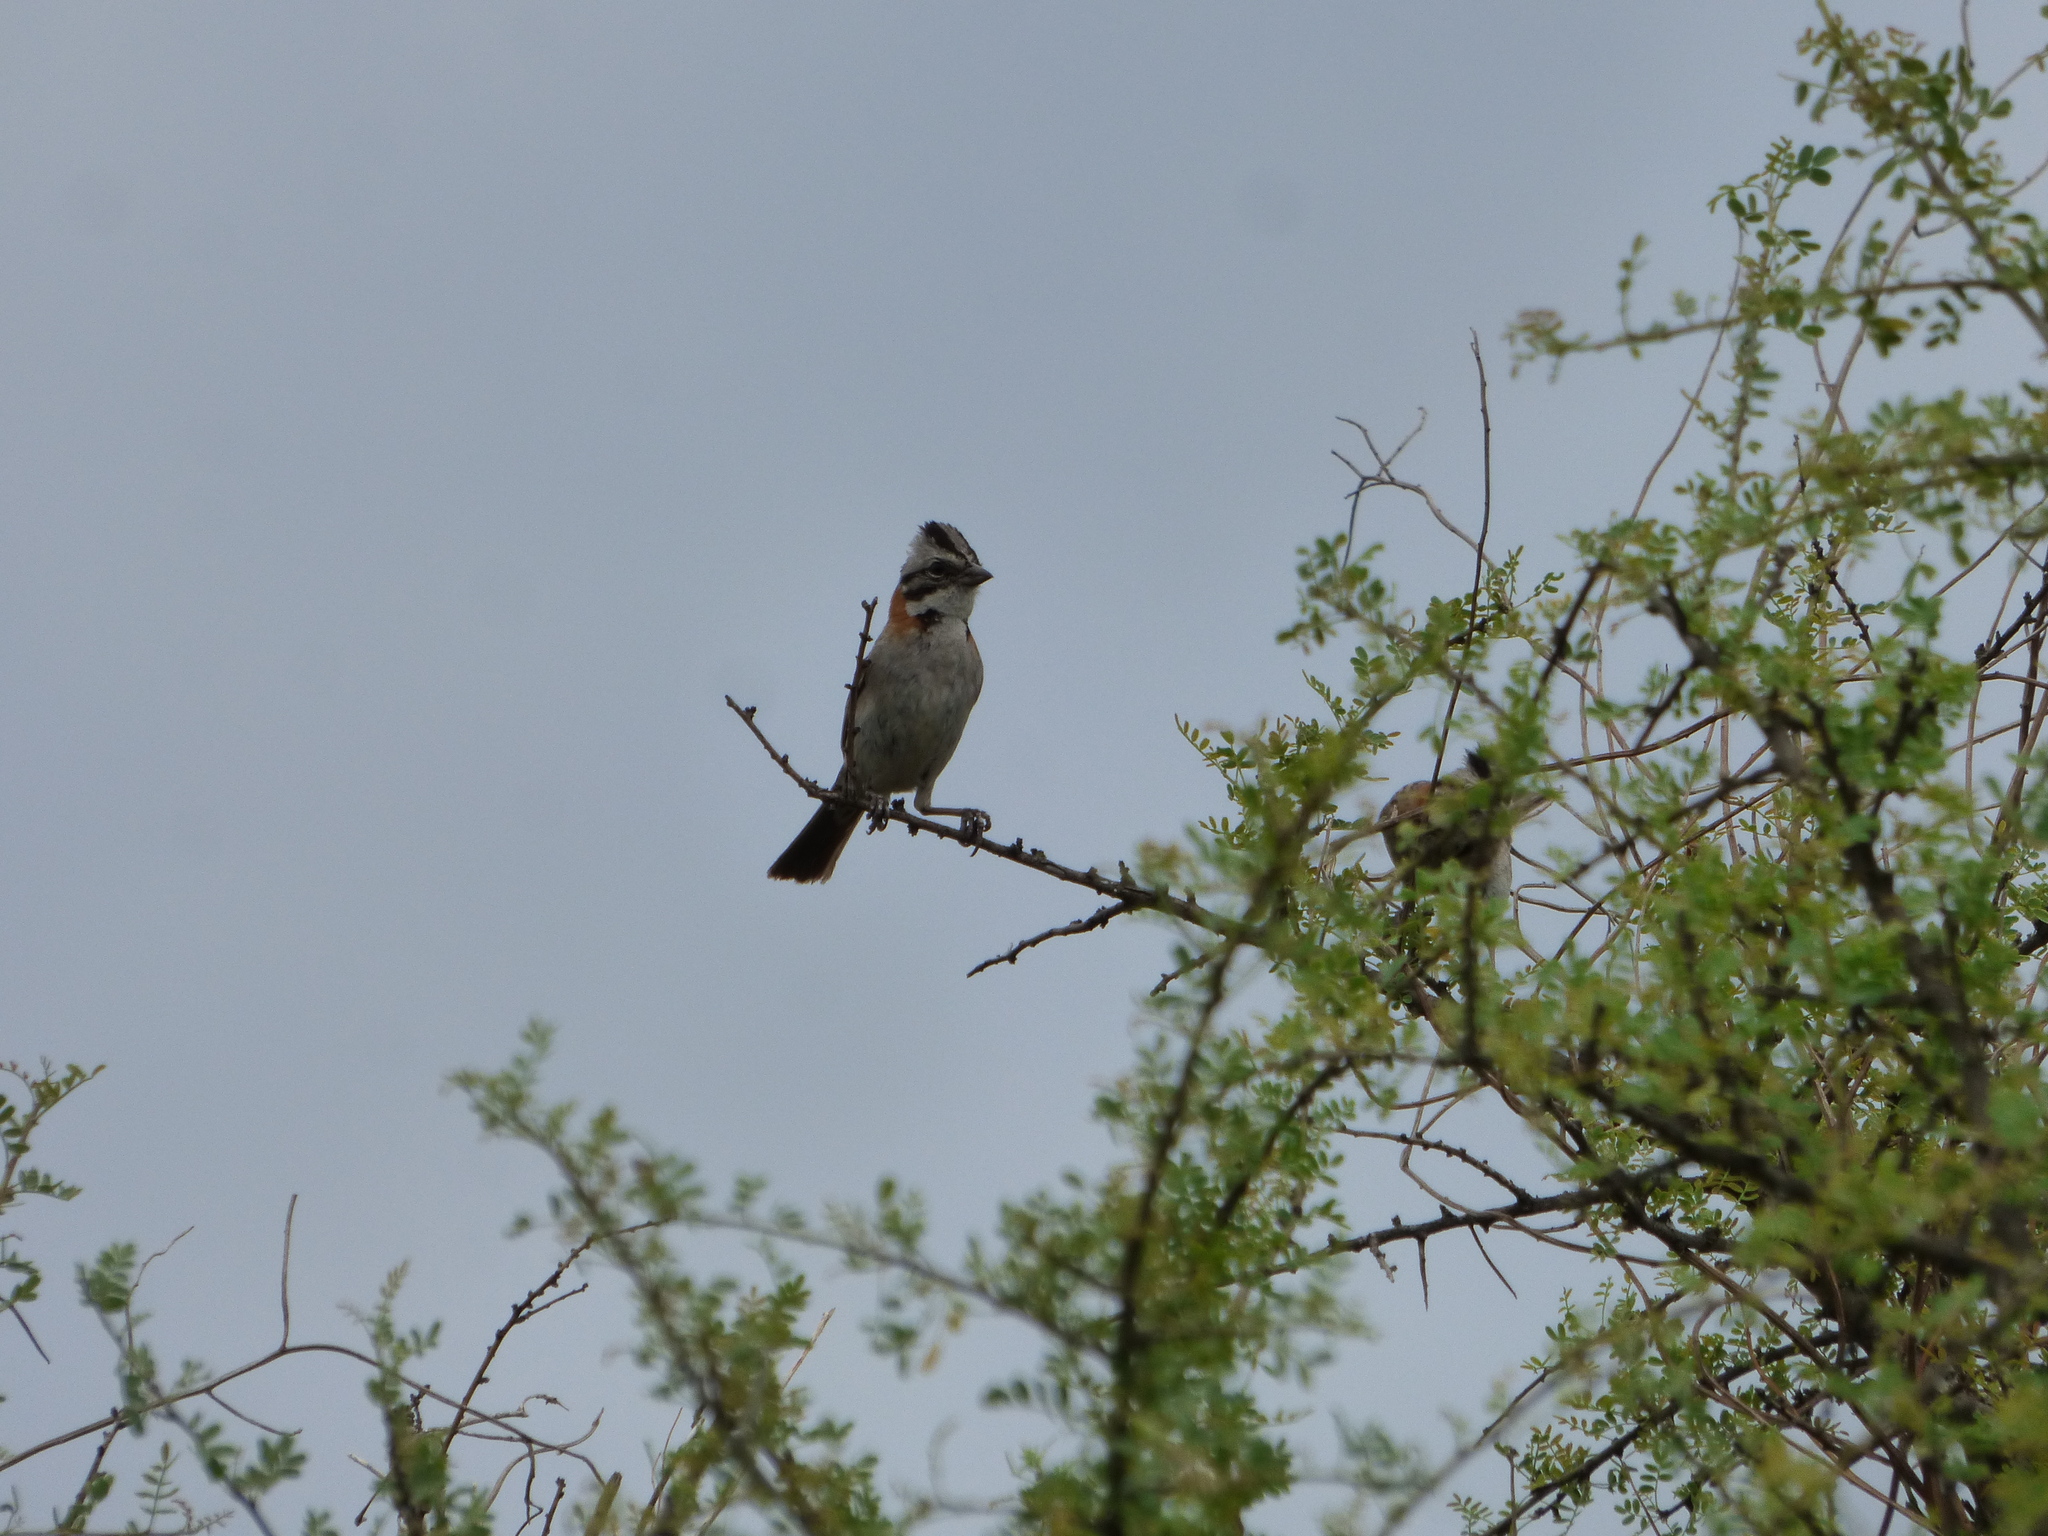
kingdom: Animalia
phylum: Chordata
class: Aves
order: Passeriformes
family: Passerellidae
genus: Zonotrichia
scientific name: Zonotrichia capensis
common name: Rufous-collared sparrow
